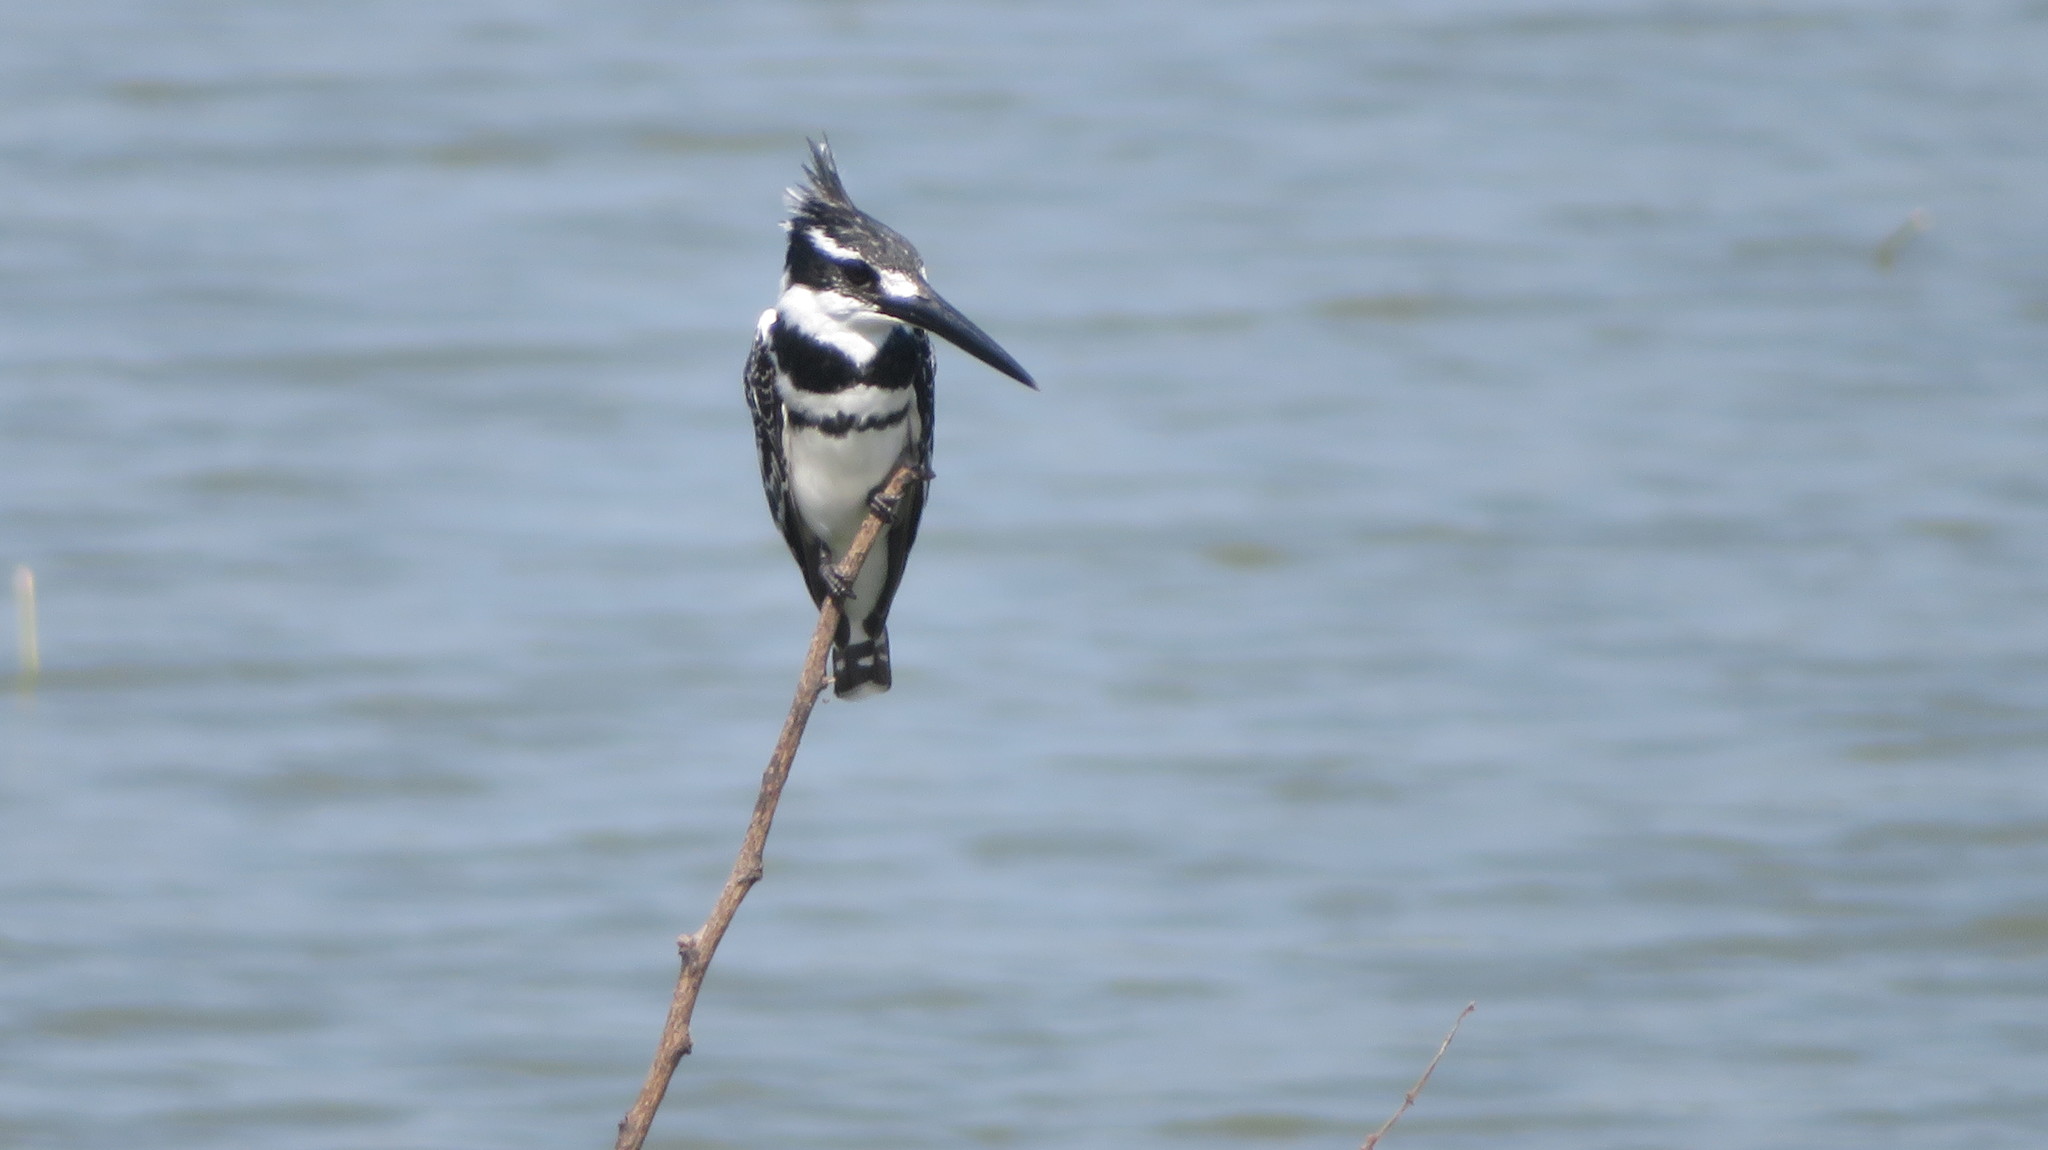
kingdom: Animalia
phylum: Chordata
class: Aves
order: Coraciiformes
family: Alcedinidae
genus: Ceryle
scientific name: Ceryle rudis
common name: Pied kingfisher
